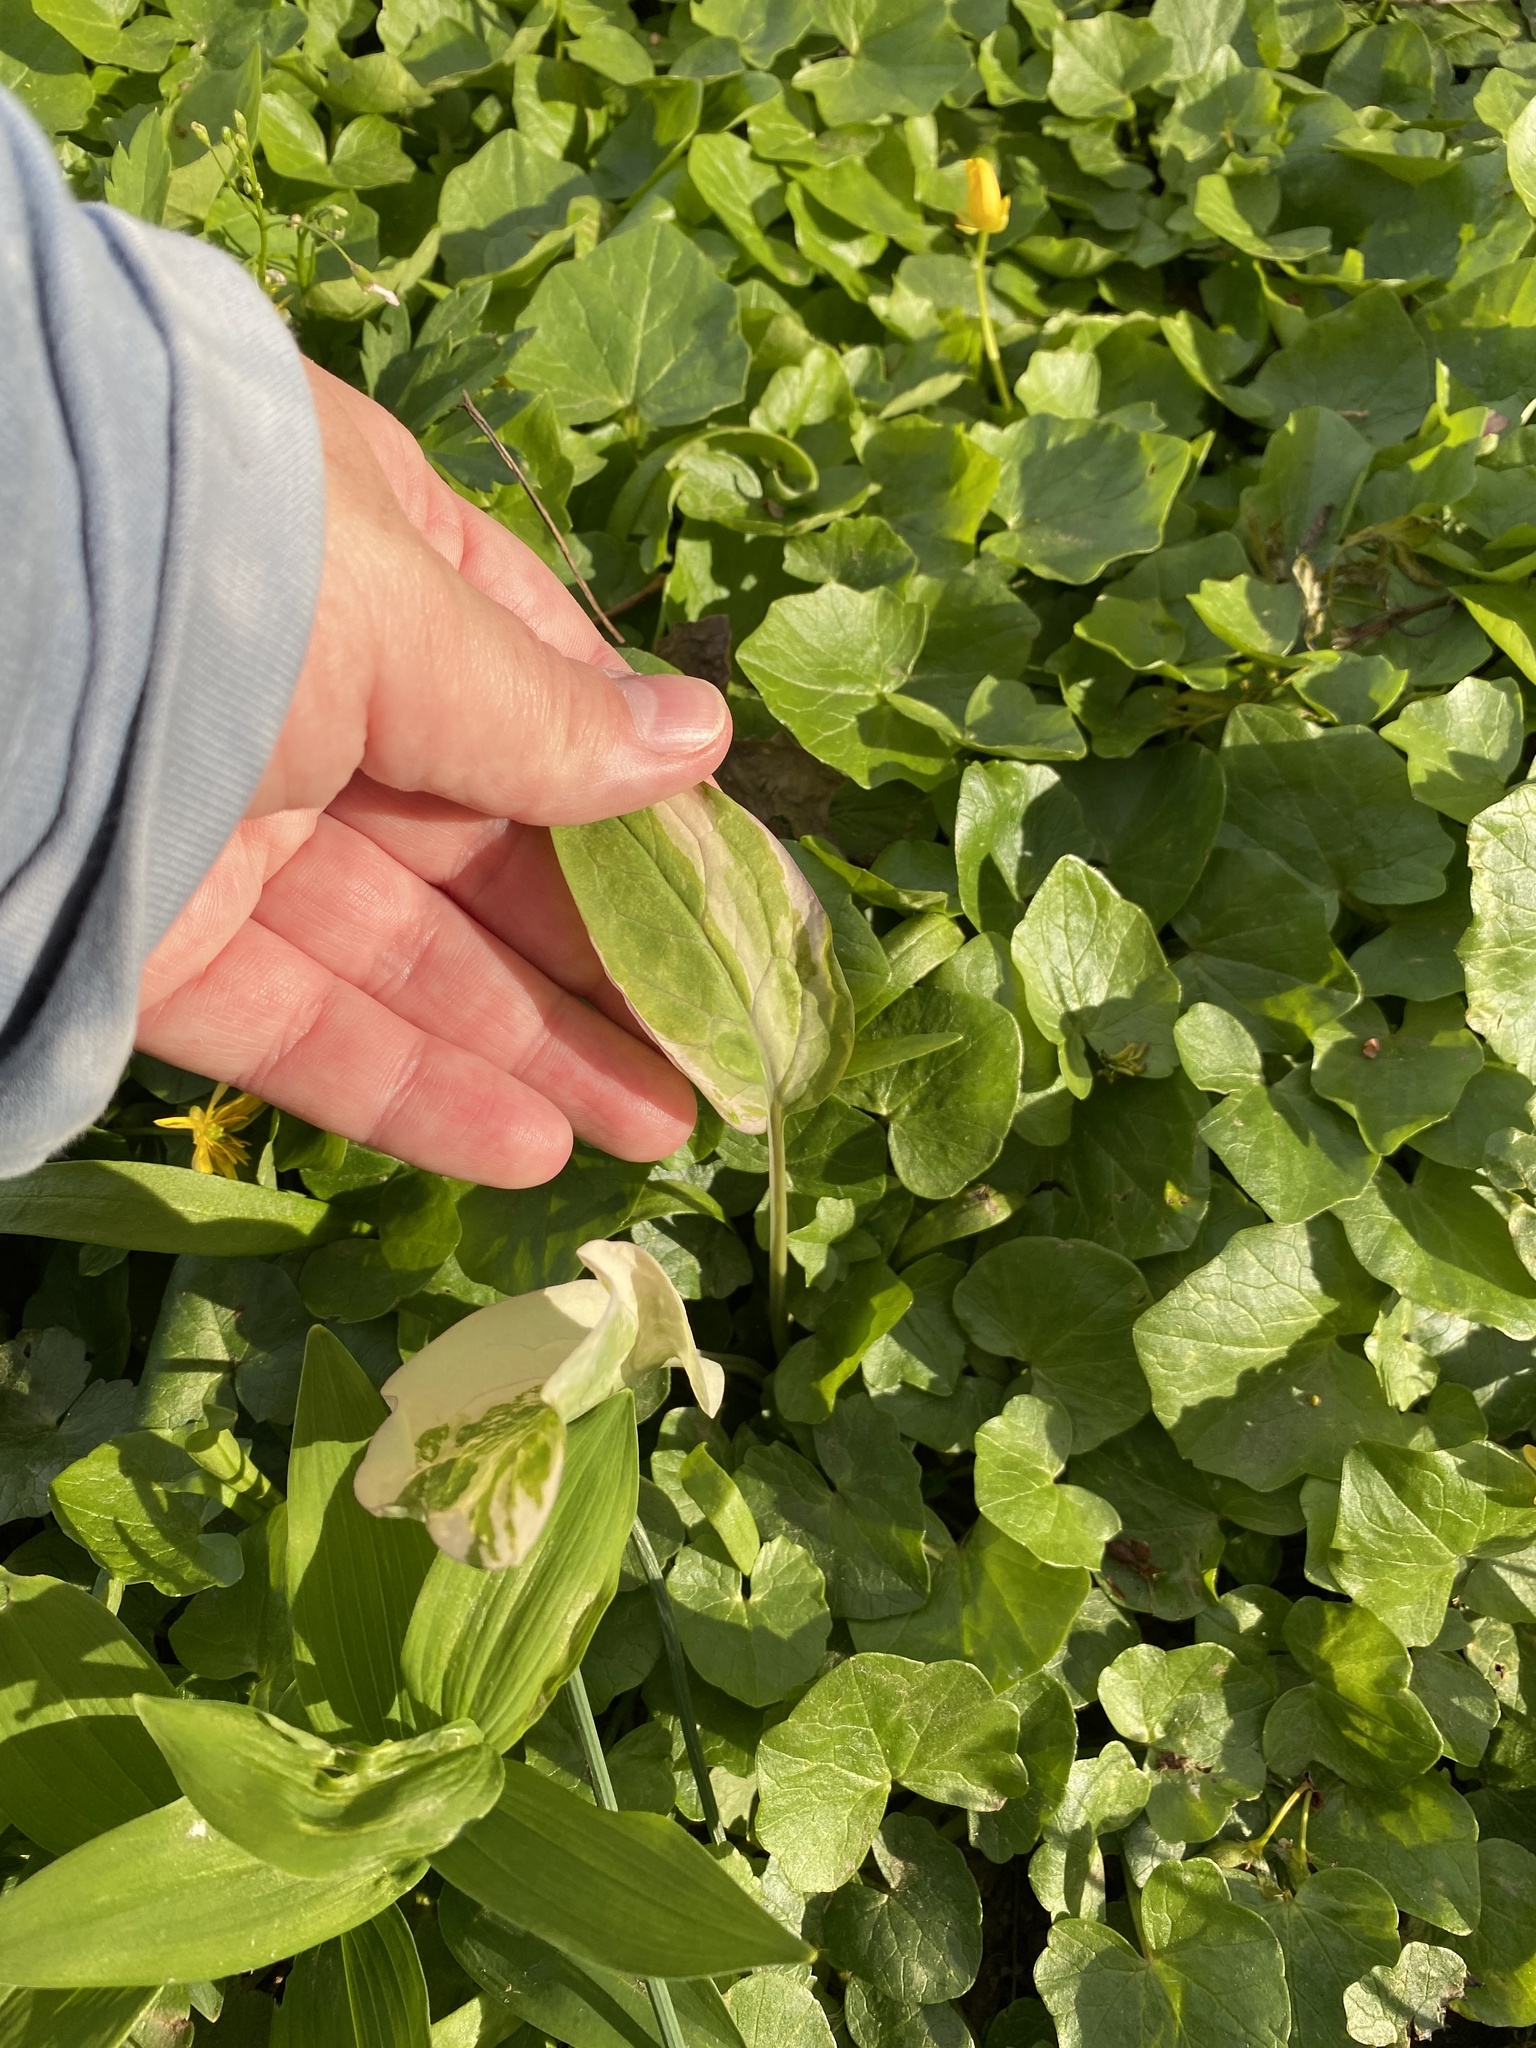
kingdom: Plantae
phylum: Tracheophyta
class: Magnoliopsida
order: Boraginales
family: Boraginaceae
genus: Mertensia
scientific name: Mertensia virginica
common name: Virginia bluebells
